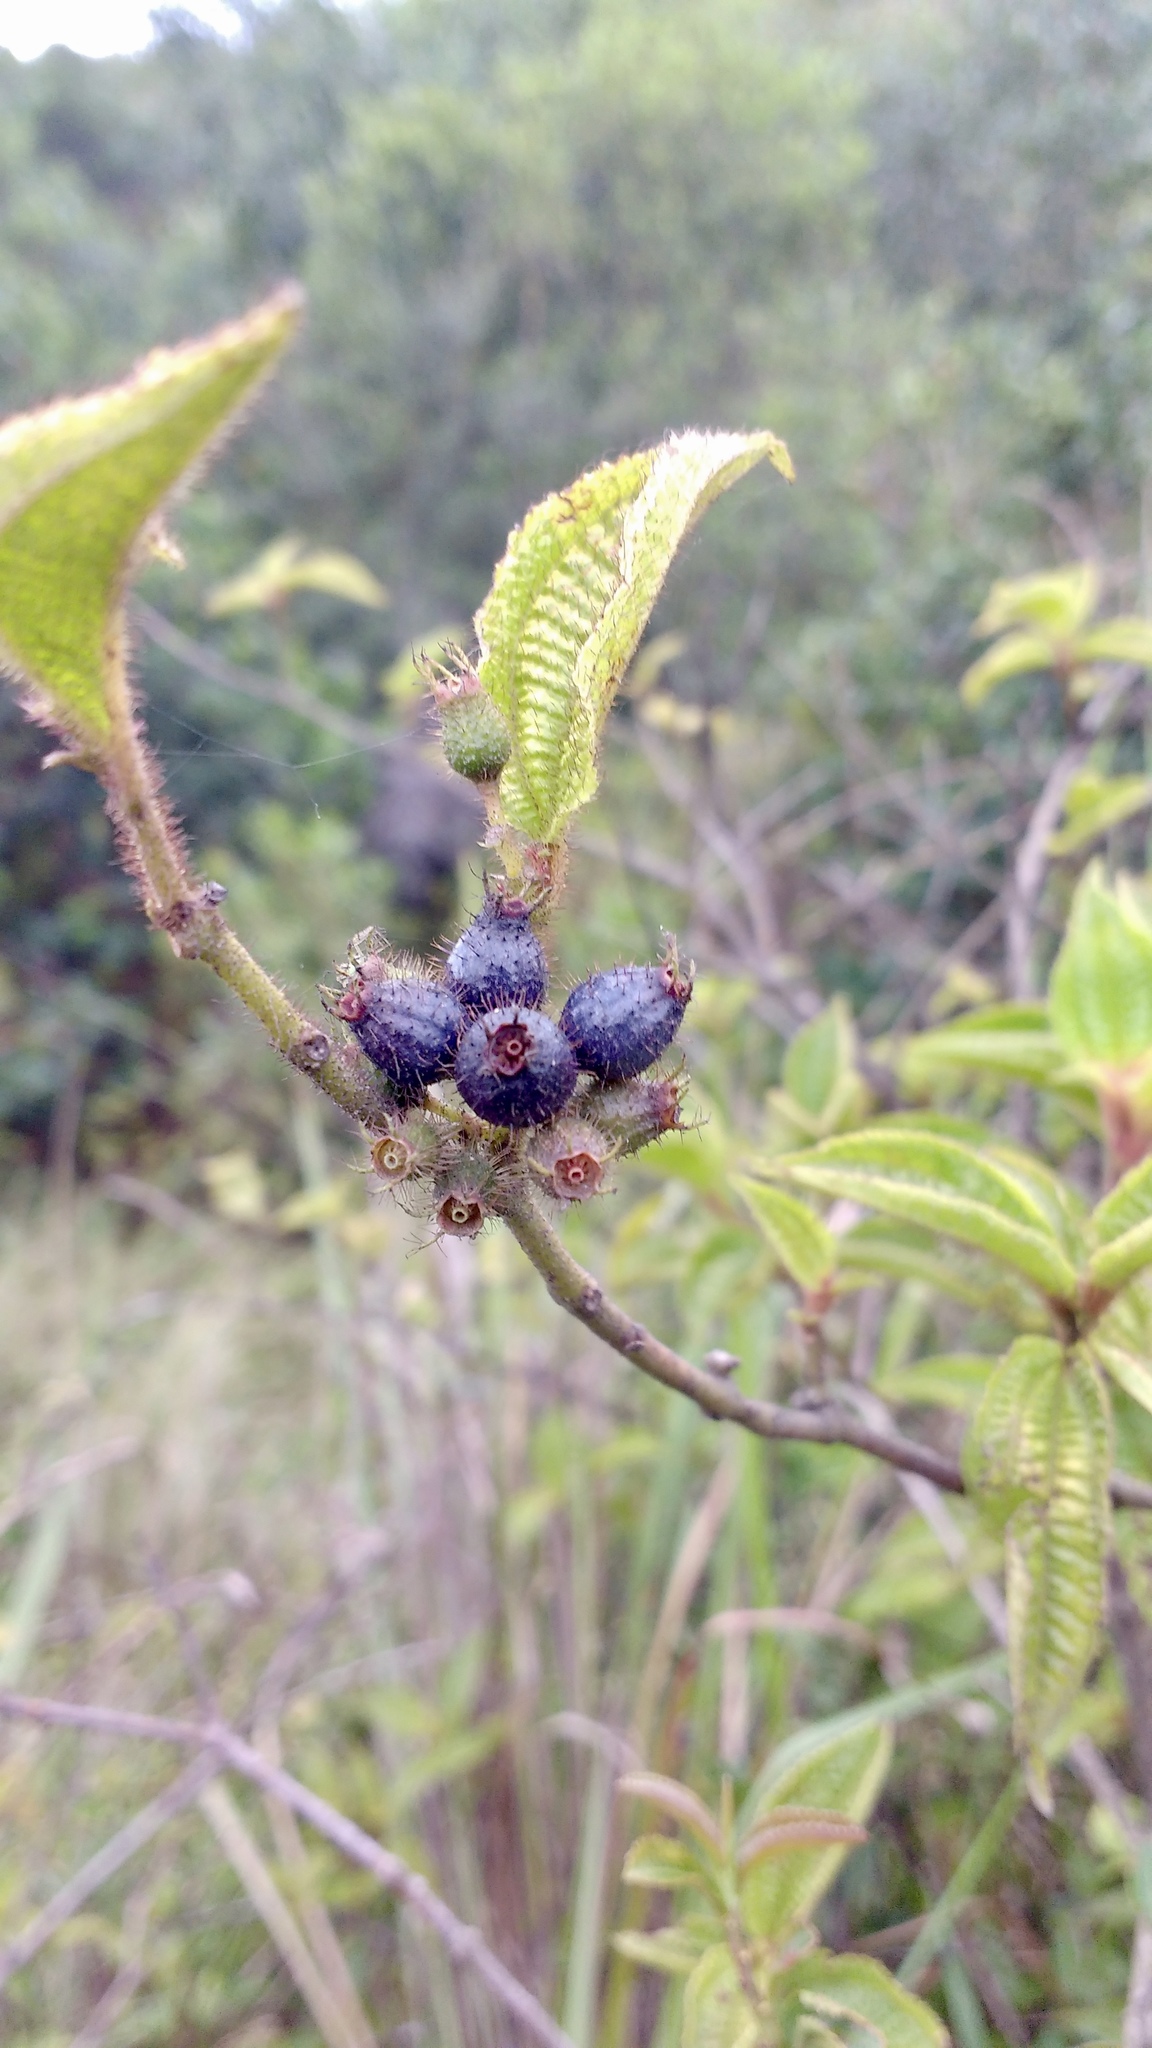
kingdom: Plantae
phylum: Tracheophyta
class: Magnoliopsida
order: Myrtales
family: Melastomataceae
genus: Miconia
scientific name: Miconia crenata
